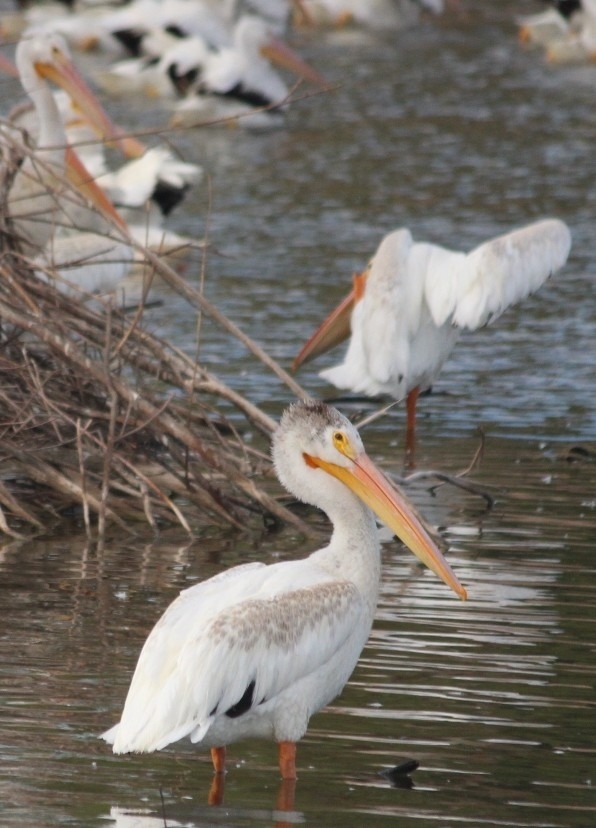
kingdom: Animalia
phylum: Chordata
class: Aves
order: Pelecaniformes
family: Pelecanidae
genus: Pelecanus
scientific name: Pelecanus erythrorhynchos
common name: American white pelican
